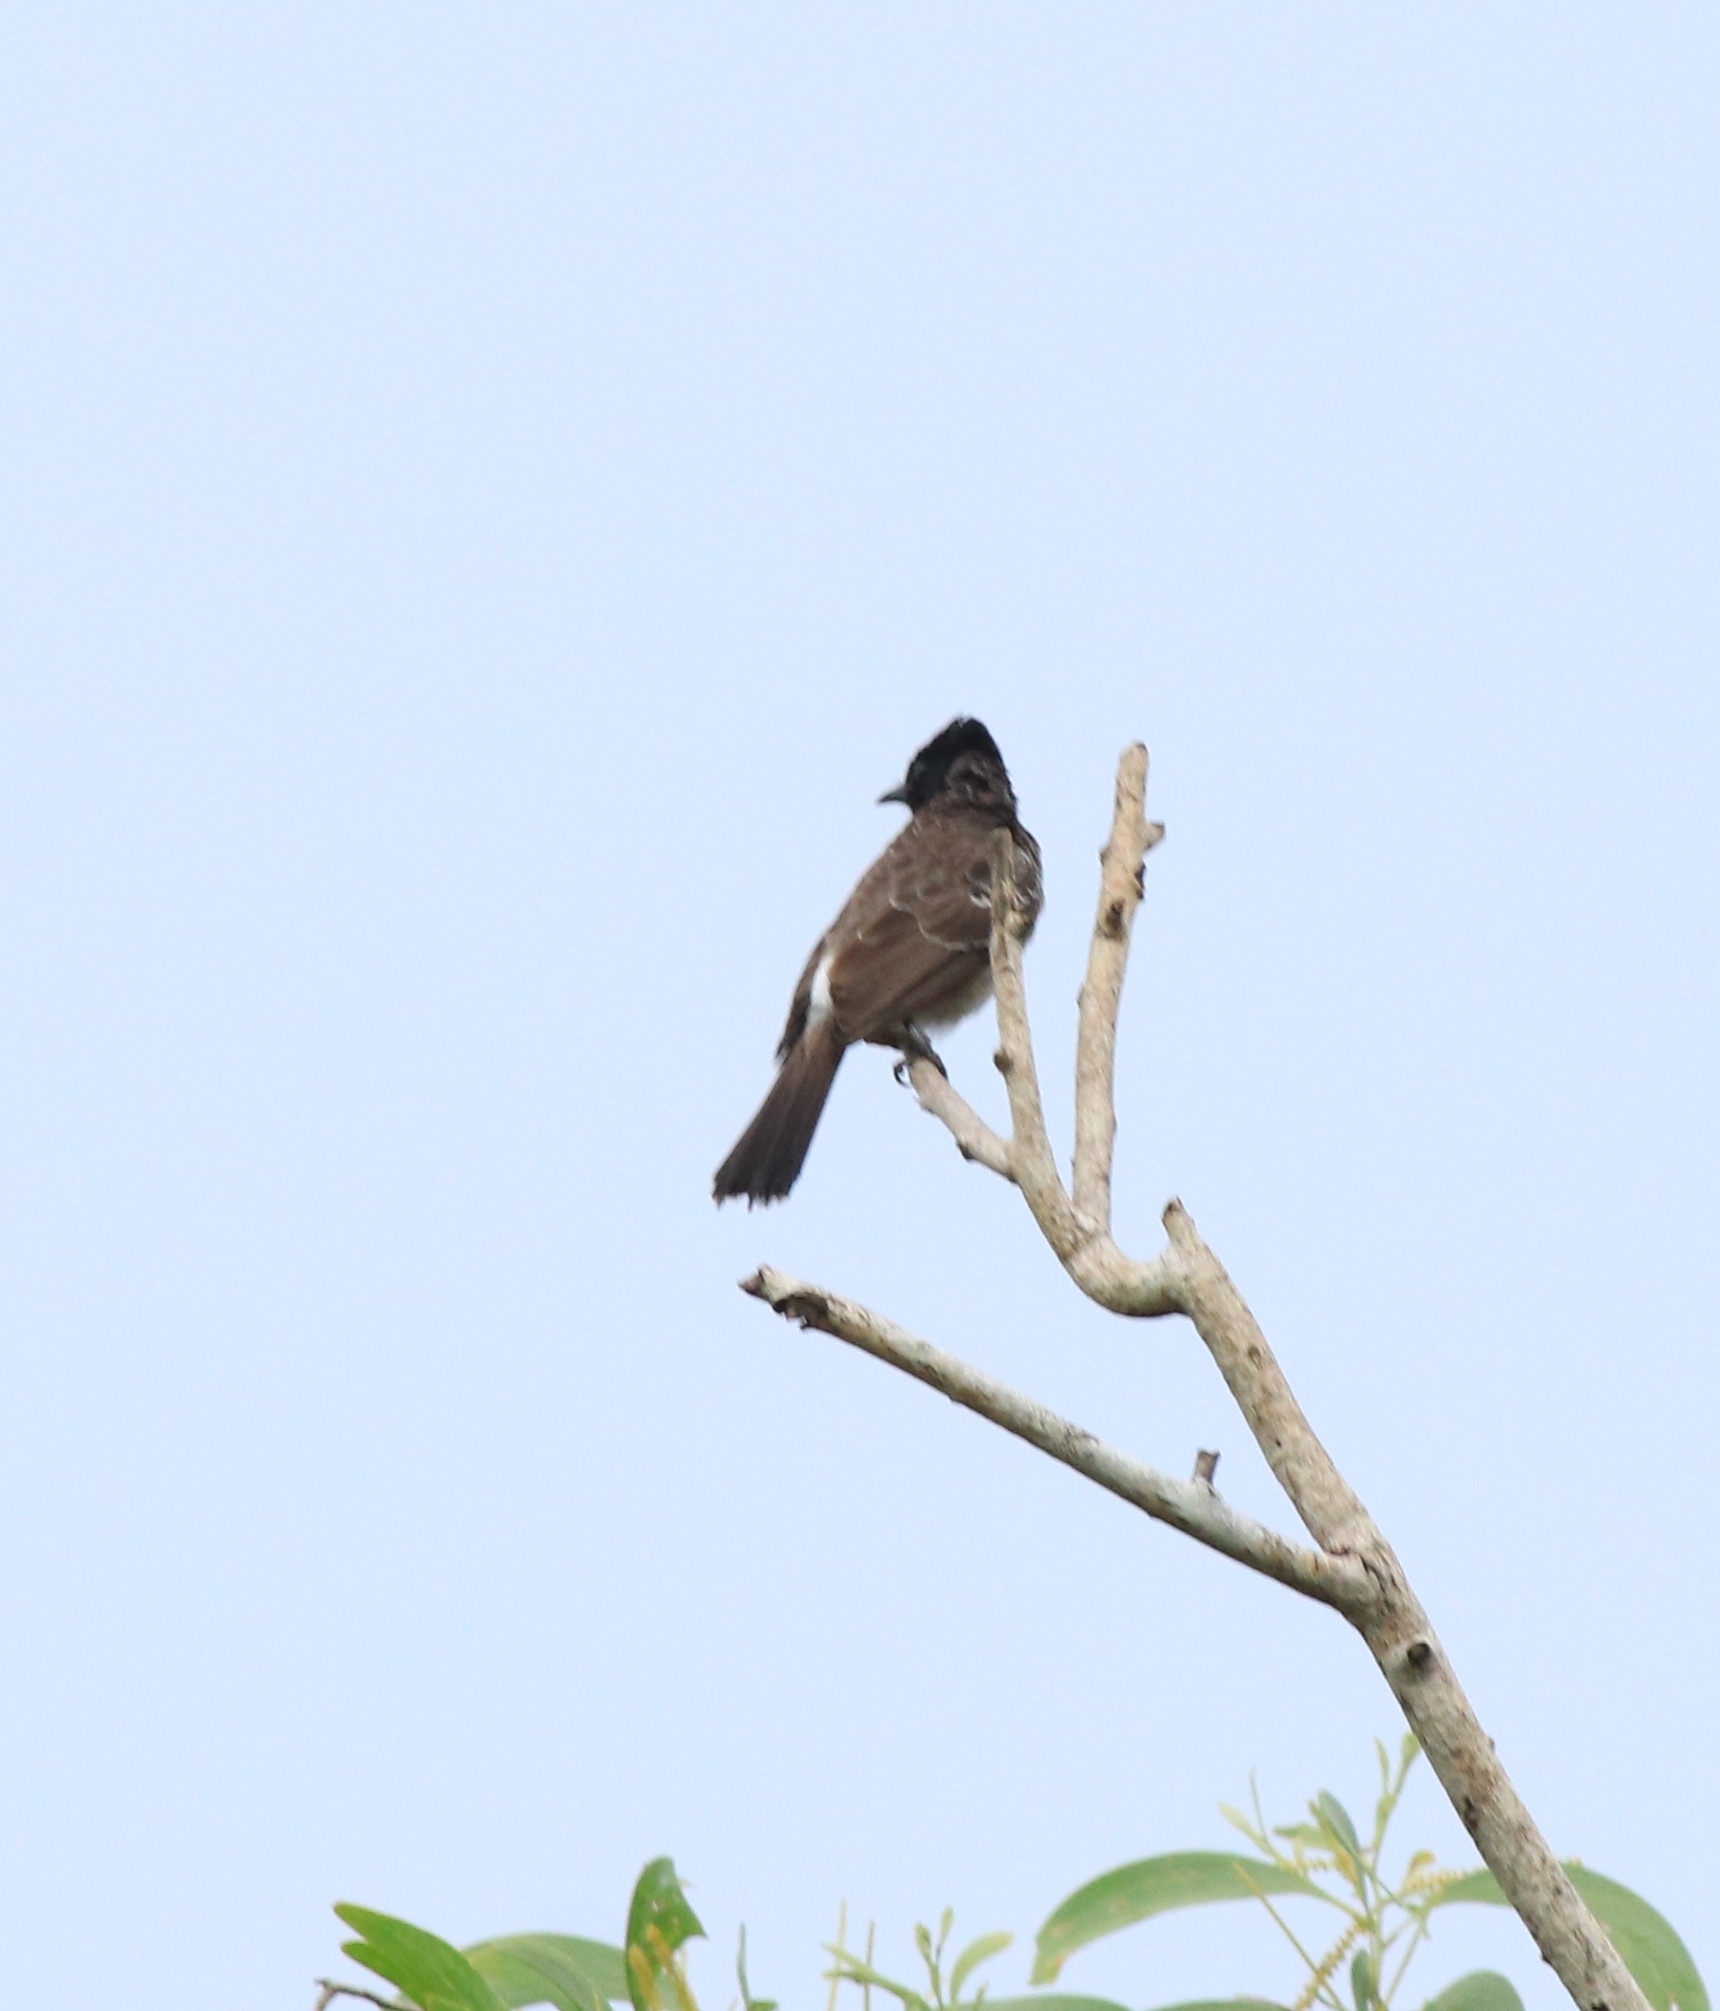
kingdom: Animalia
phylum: Chordata
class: Aves
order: Passeriformes
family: Pycnonotidae
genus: Pycnonotus
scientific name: Pycnonotus cafer
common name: Red-vented bulbul
